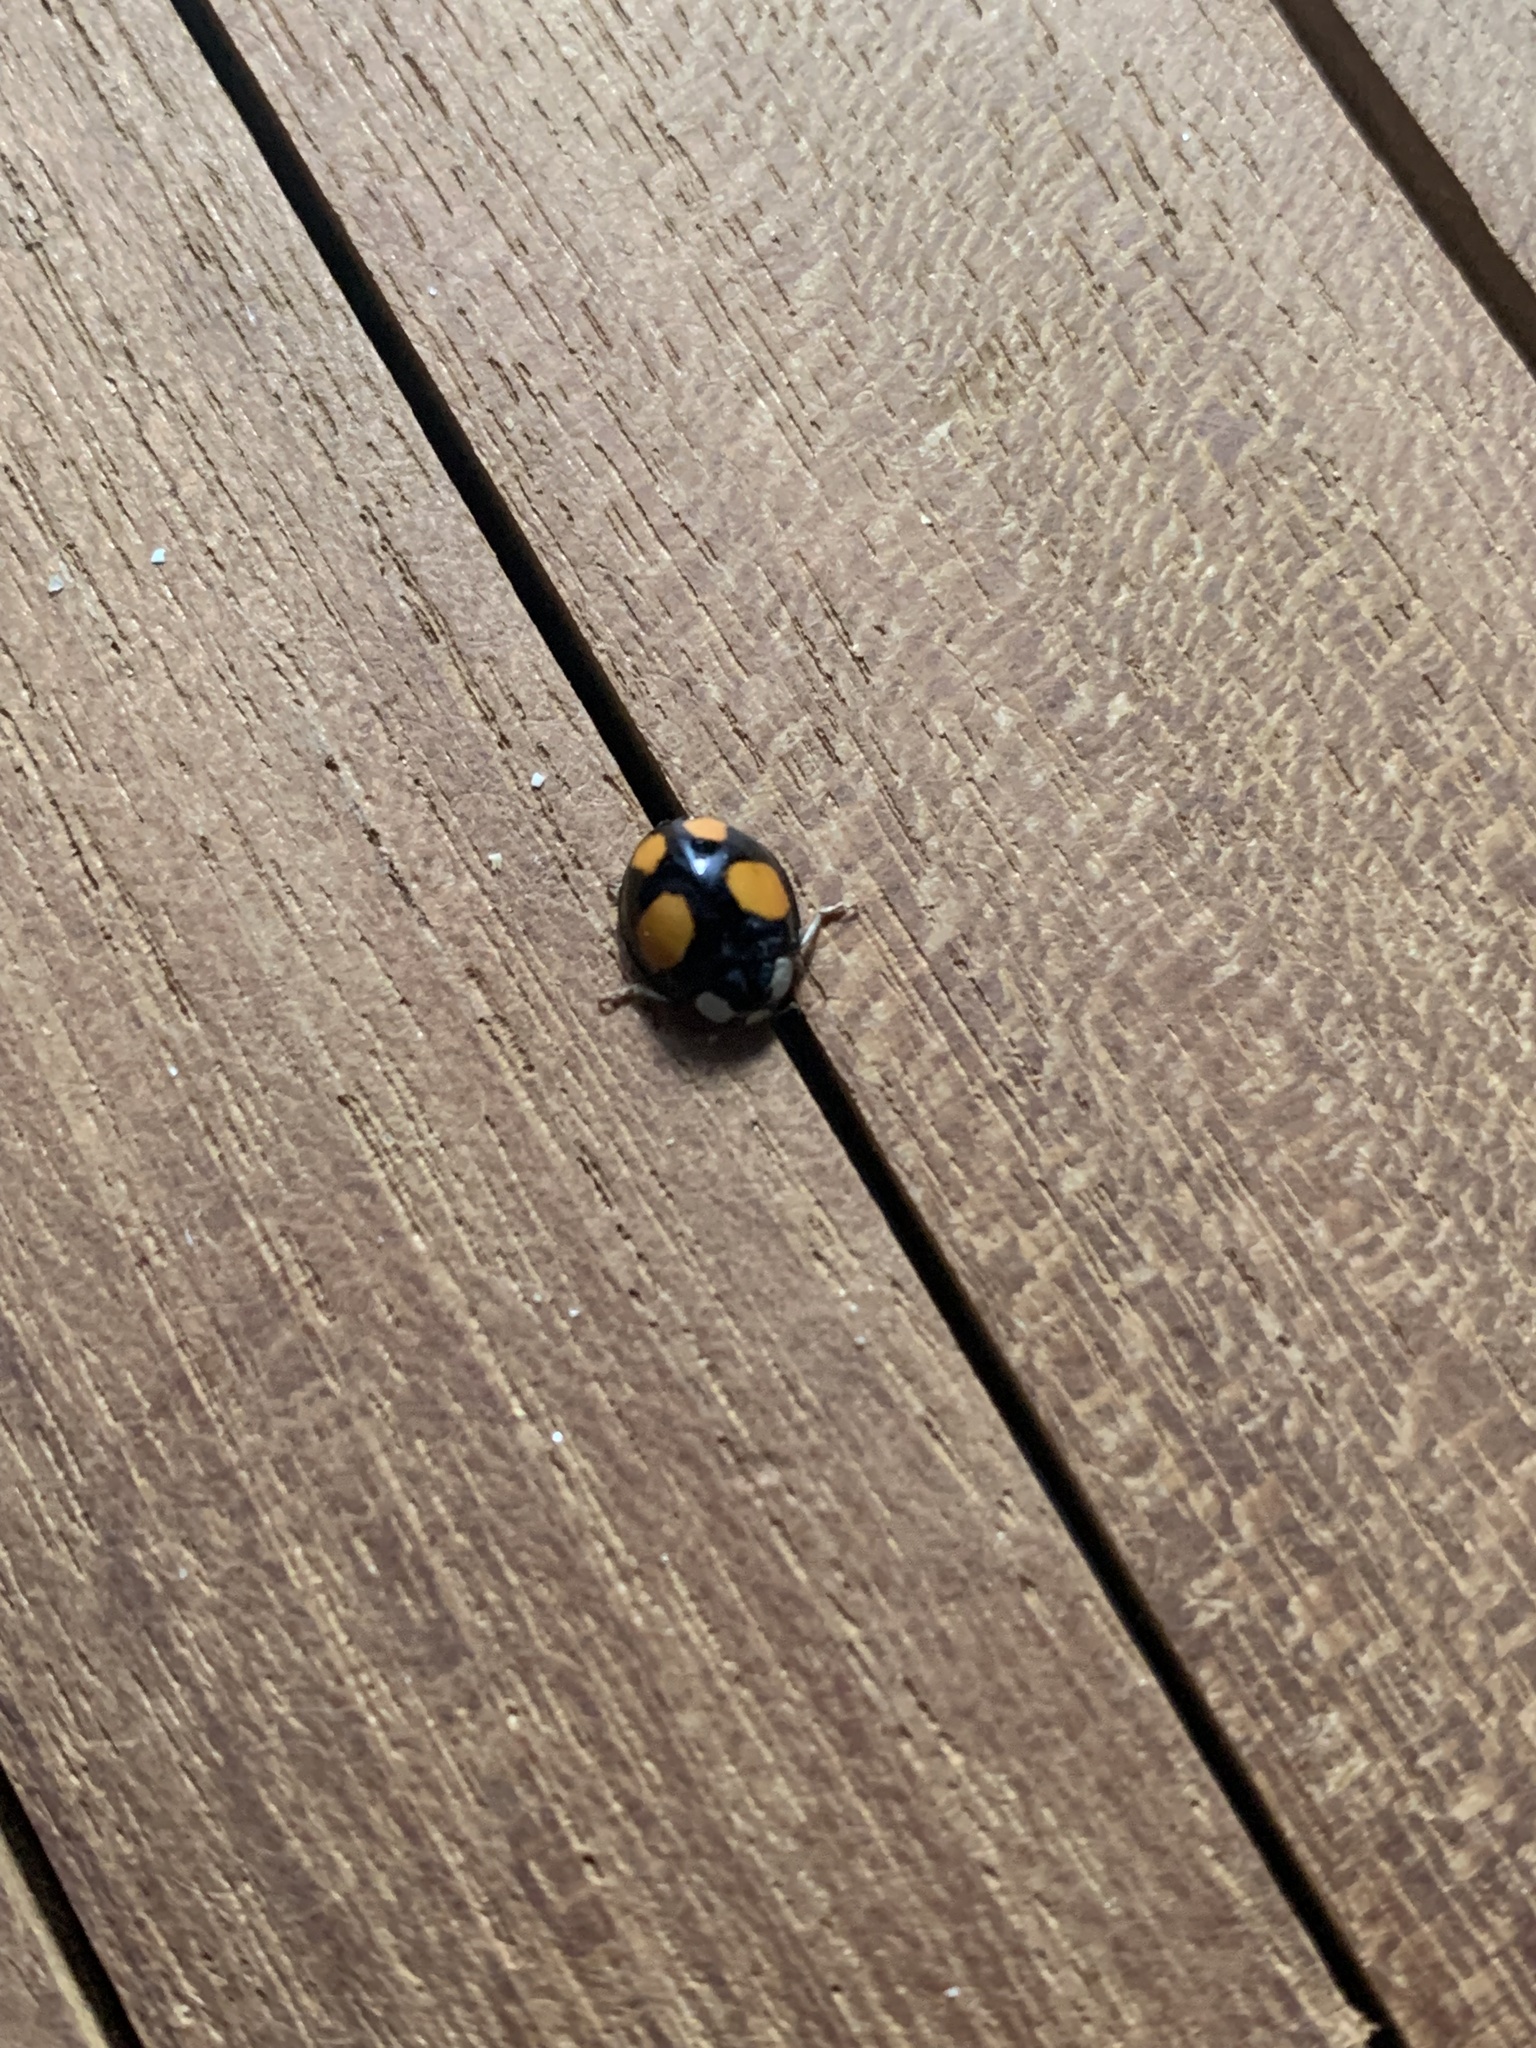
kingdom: Animalia
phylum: Arthropoda
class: Insecta
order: Coleoptera
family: Coccinellidae
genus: Harmonia
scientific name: Harmonia axyridis
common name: Harlequin ladybird
